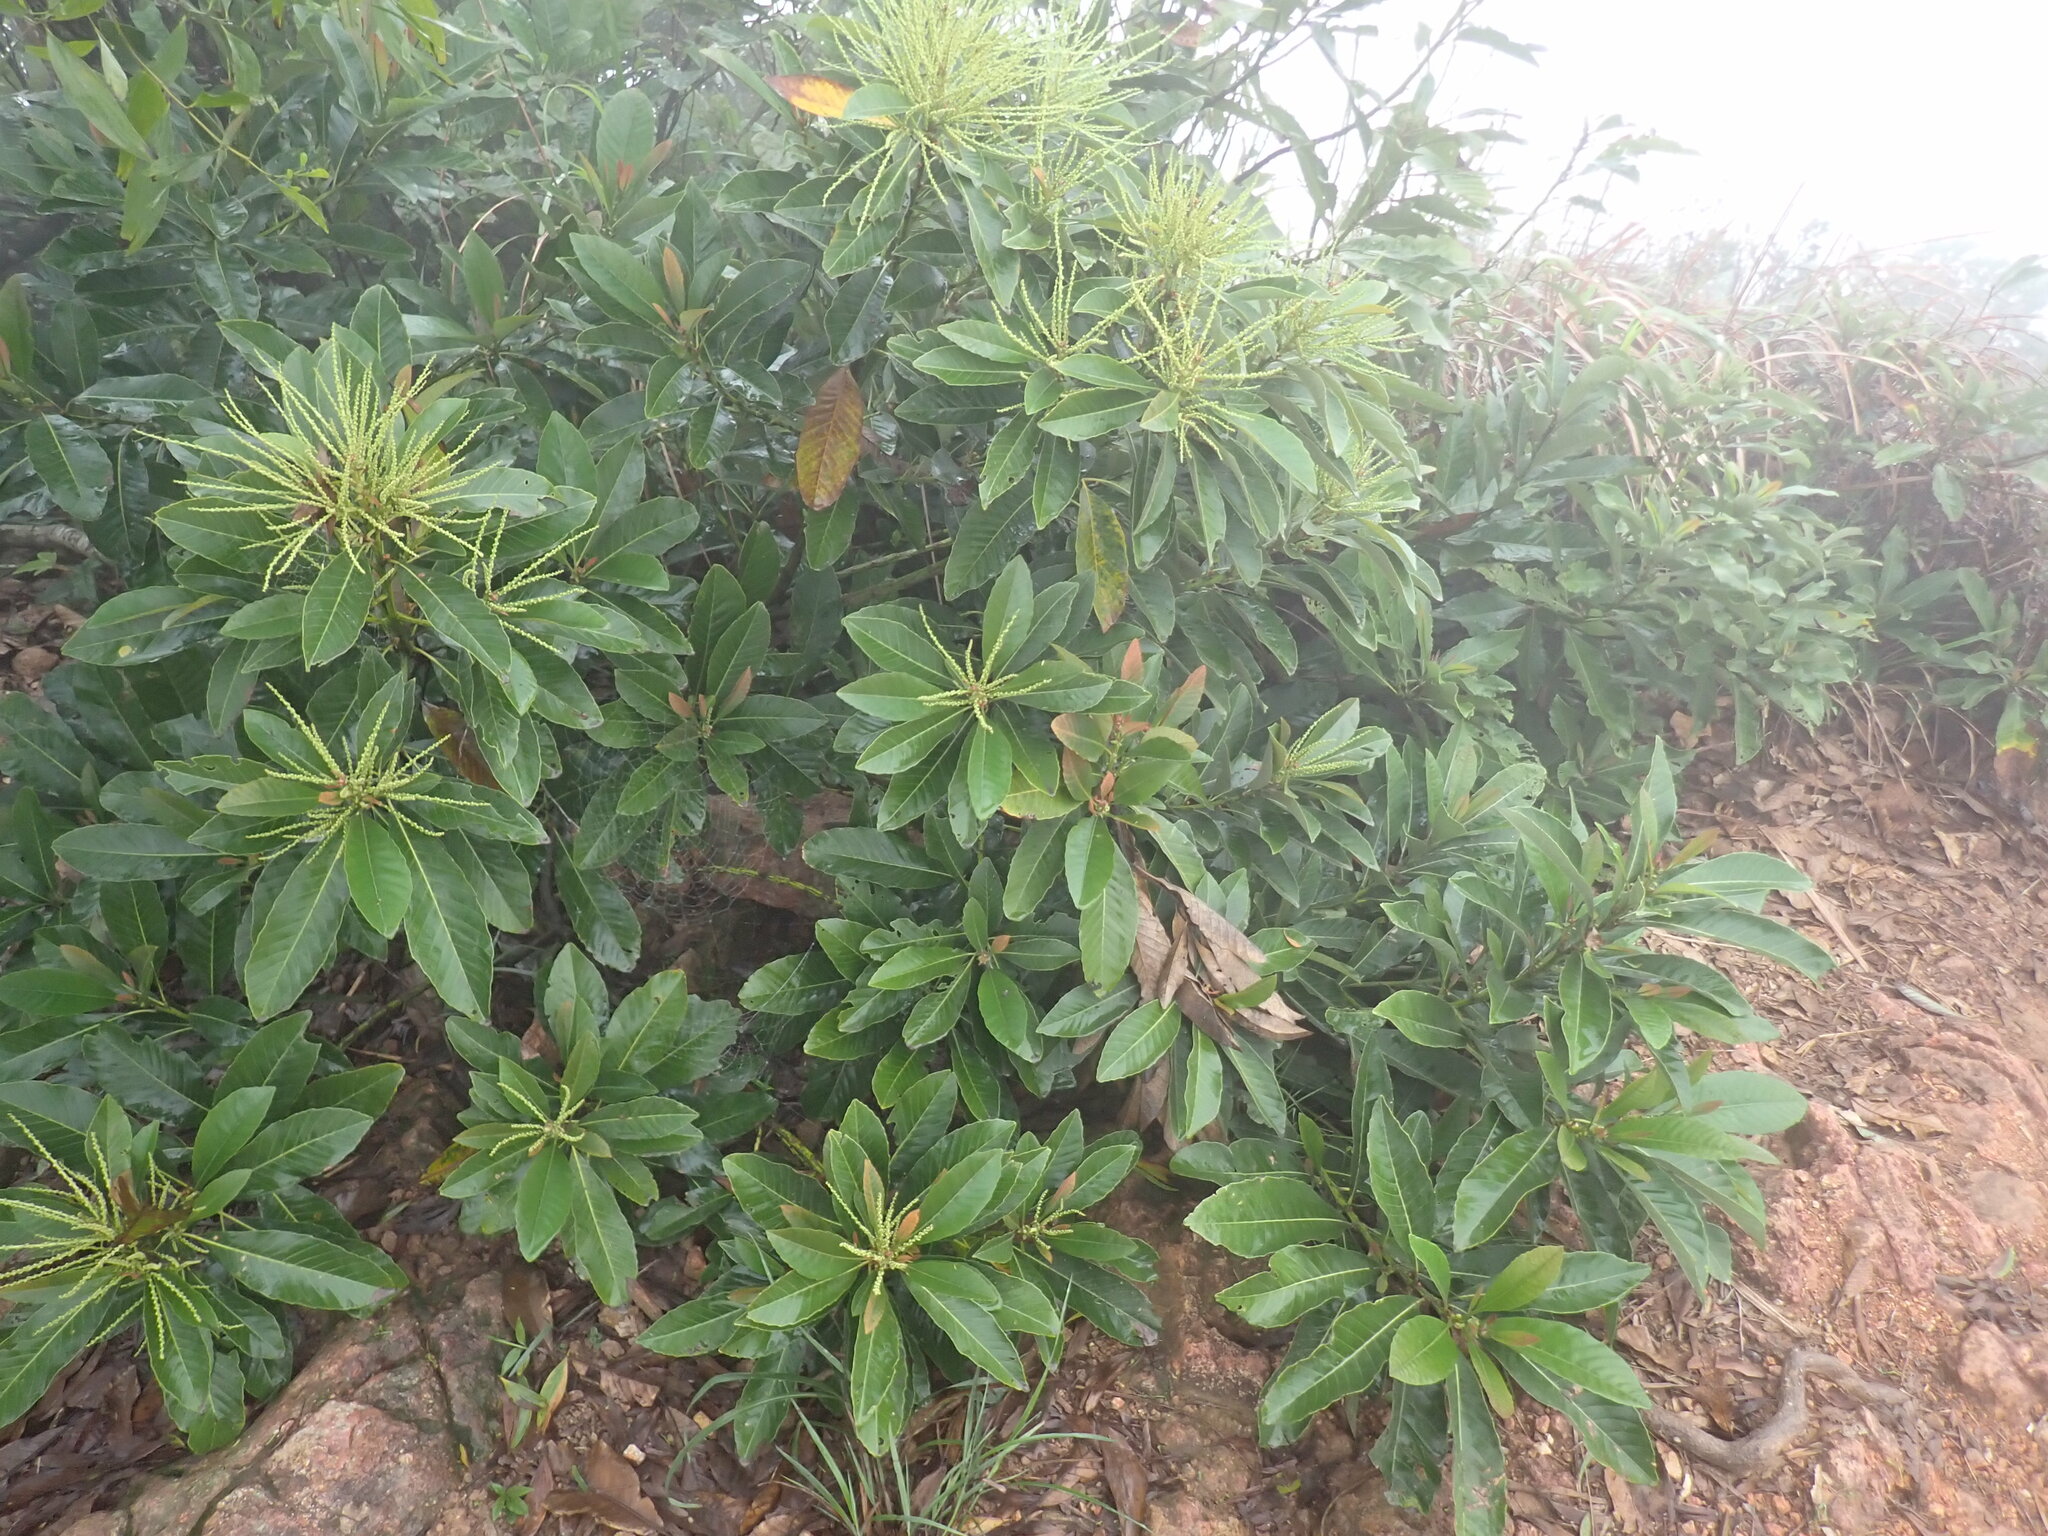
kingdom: Plantae
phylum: Tracheophyta
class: Magnoliopsida
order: Fagales
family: Fagaceae
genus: Castanopsis
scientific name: Castanopsis fissa
